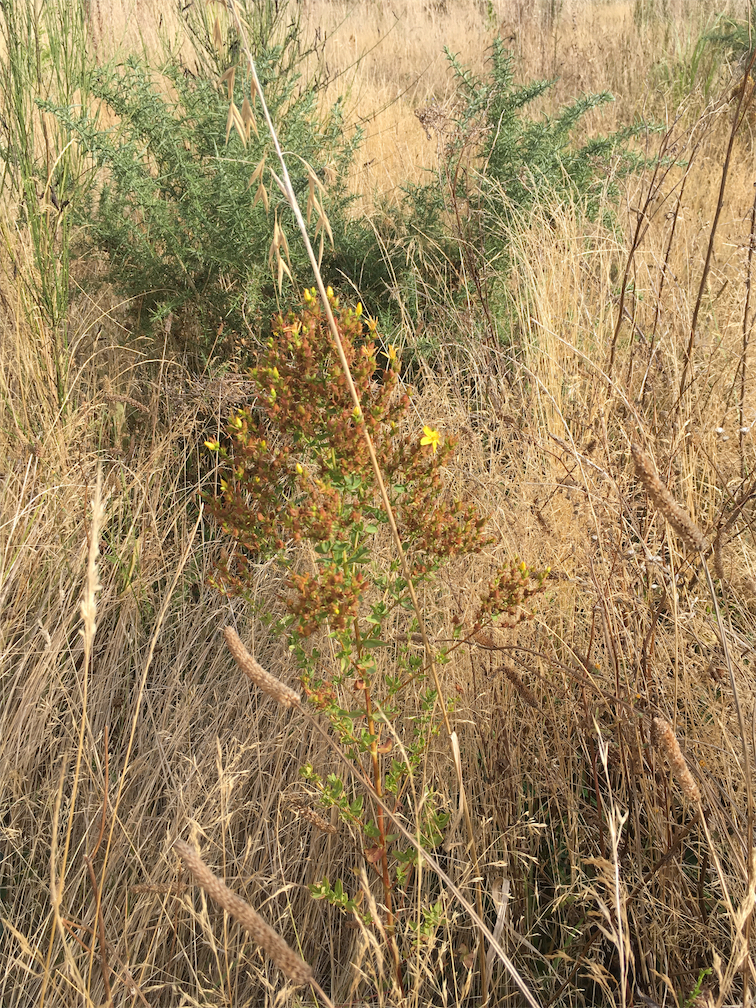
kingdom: Plantae
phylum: Tracheophyta
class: Magnoliopsida
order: Malpighiales
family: Hypericaceae
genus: Hypericum
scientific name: Hypericum perforatum
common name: Common st. johnswort
